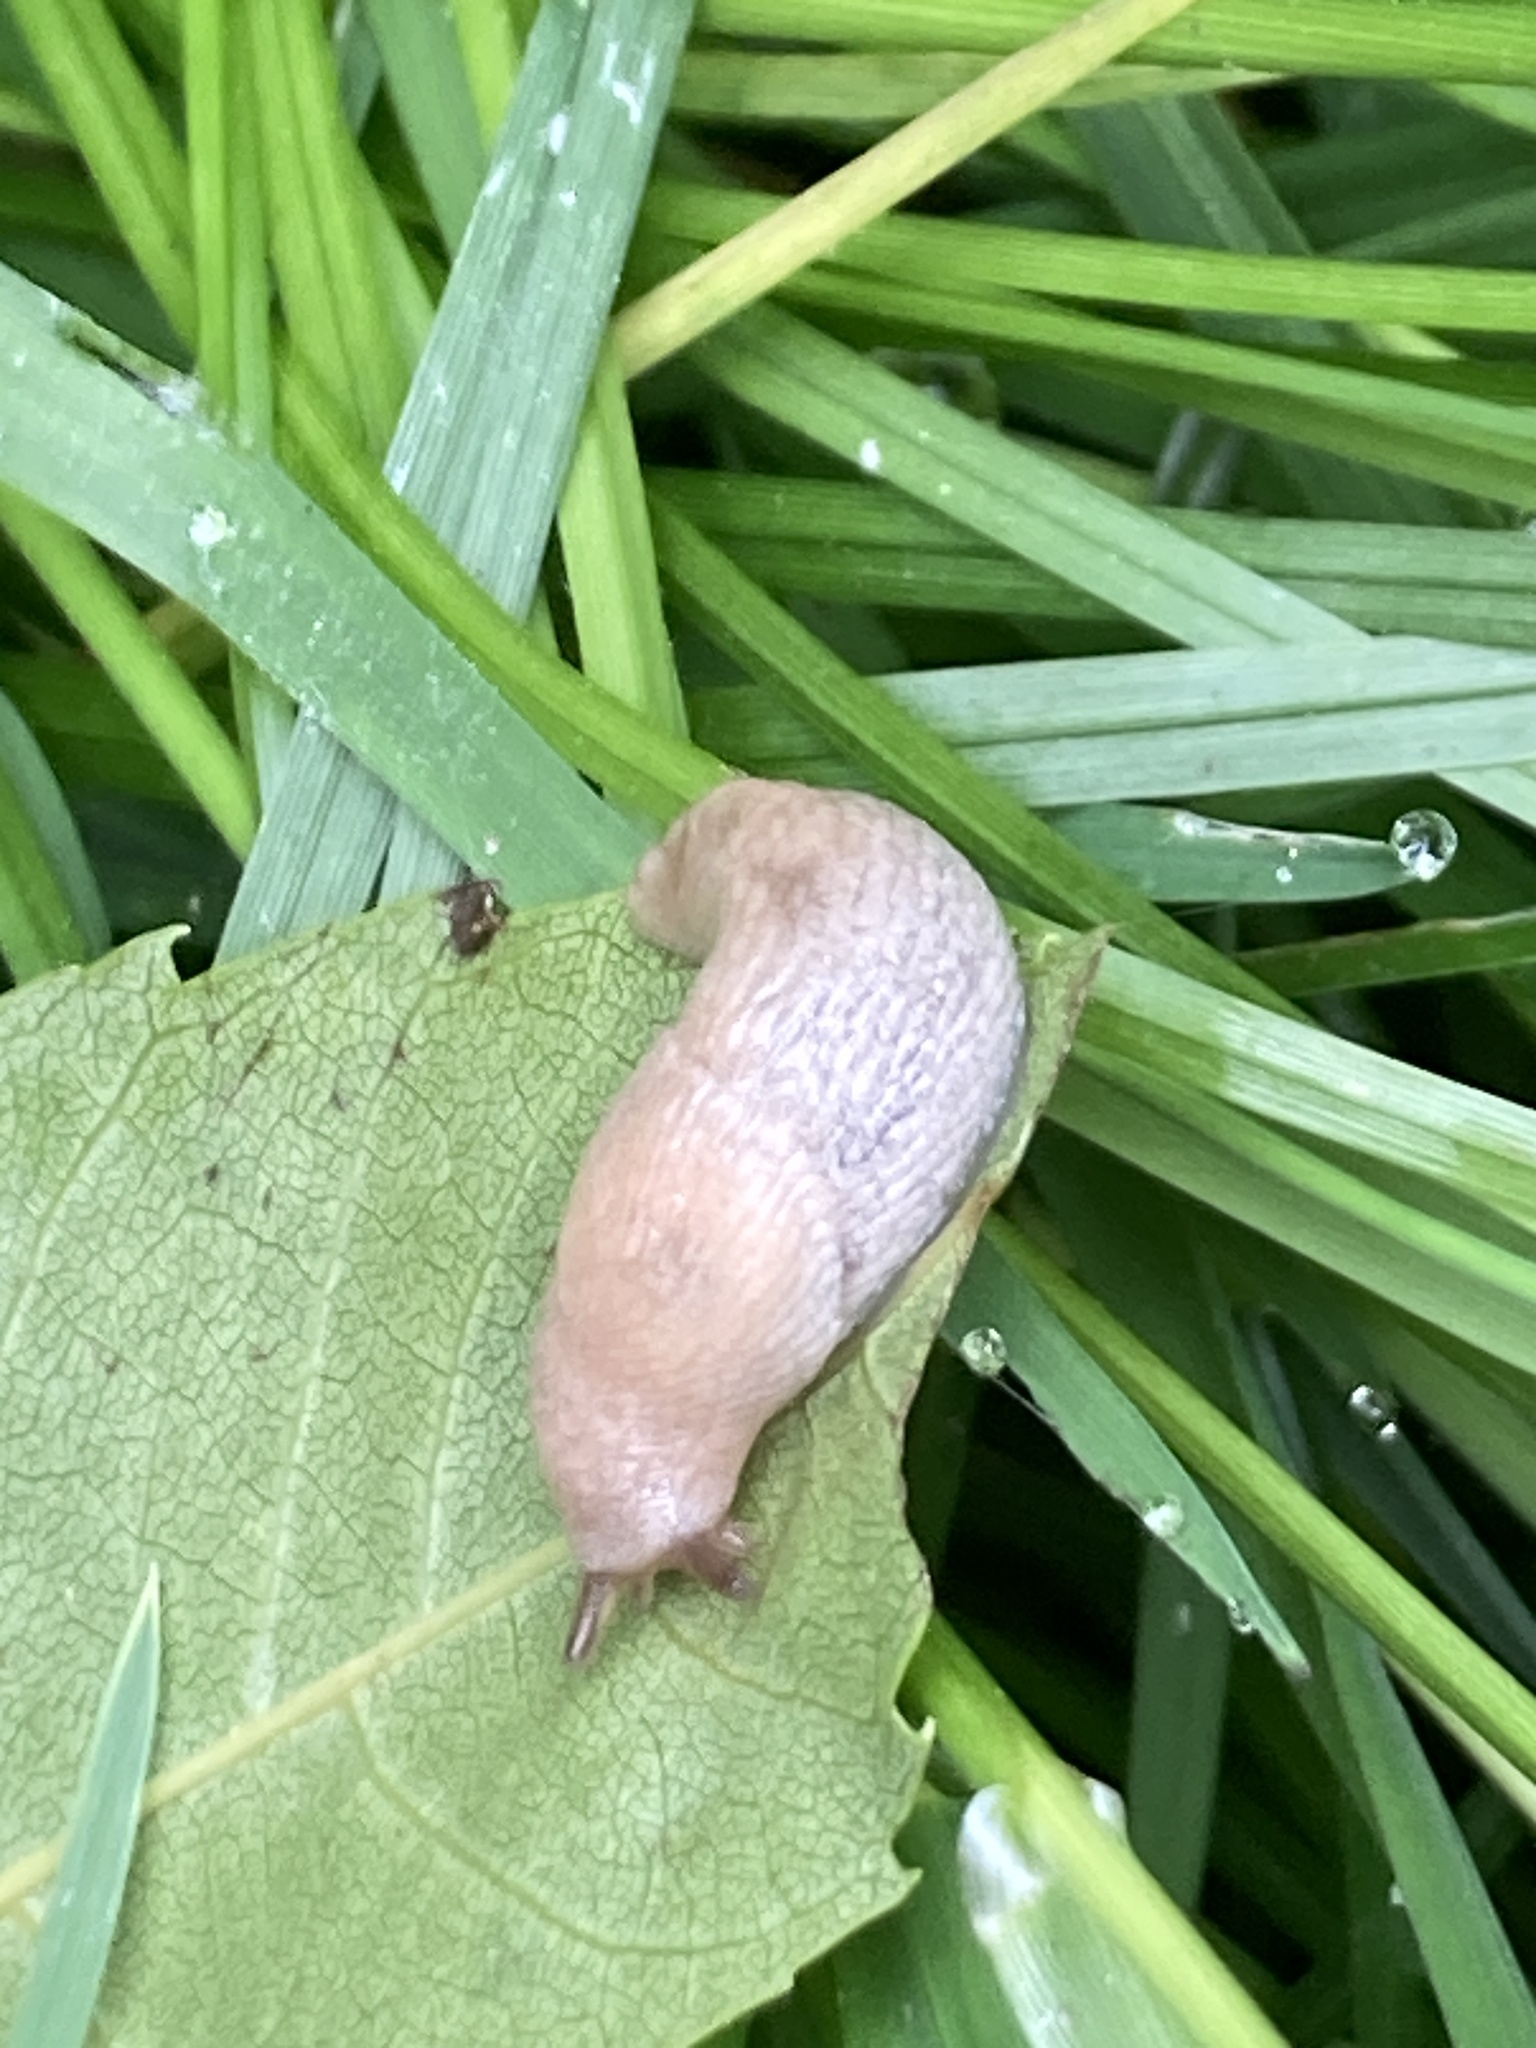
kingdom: Animalia
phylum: Mollusca
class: Gastropoda
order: Stylommatophora
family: Agriolimacidae
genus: Deroceras
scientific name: Deroceras reticulatum
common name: Gray field slug
